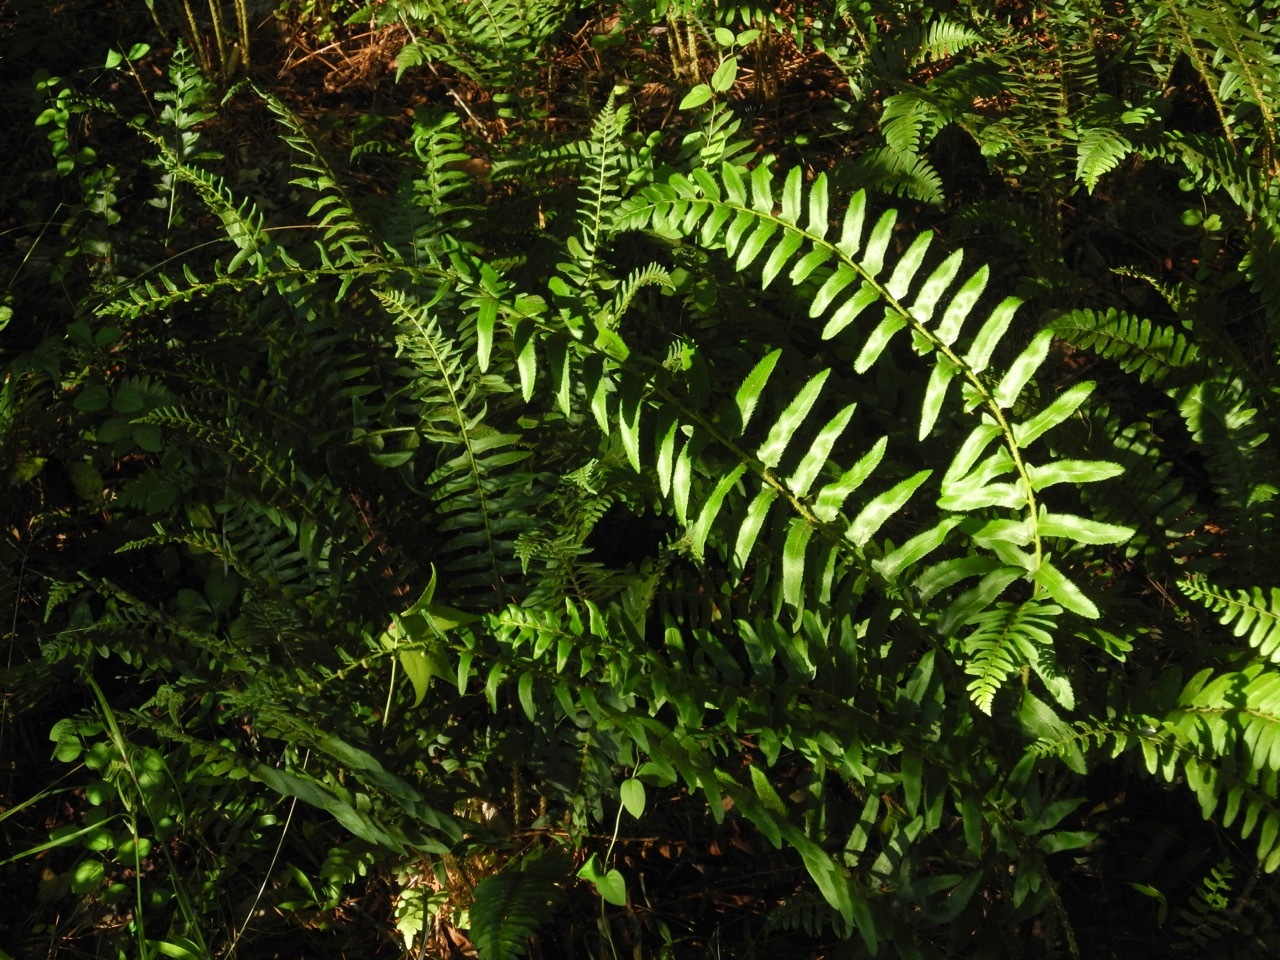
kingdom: Plantae
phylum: Tracheophyta
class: Polypodiopsida
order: Polypodiales
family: Dryopteridaceae
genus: Polystichum
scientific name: Polystichum acrostichoides
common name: Christmas fern
